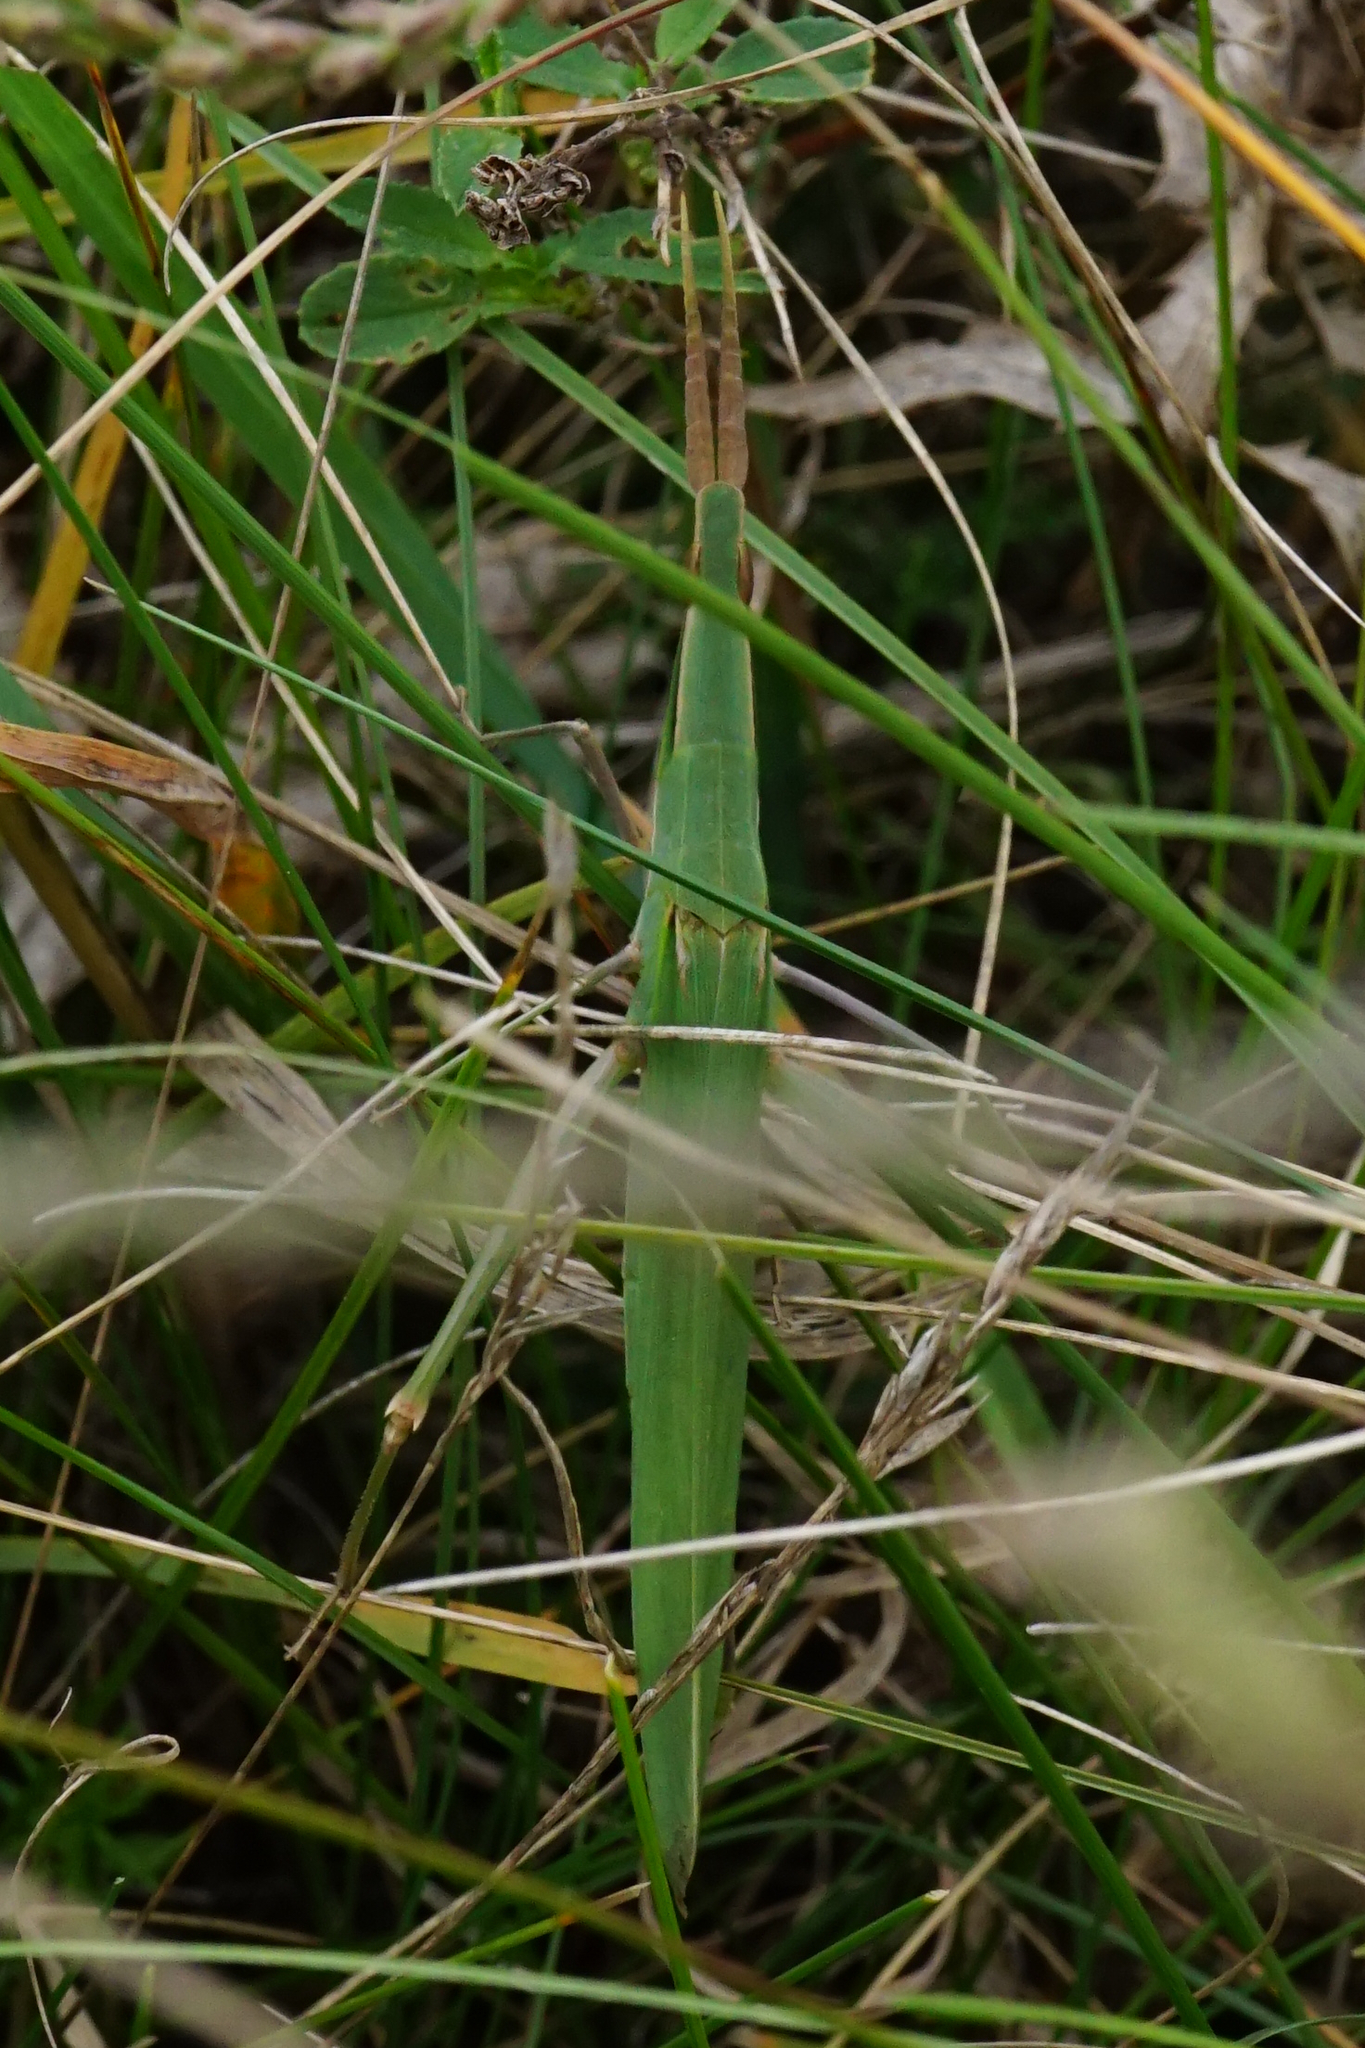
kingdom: Animalia
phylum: Arthropoda
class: Insecta
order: Orthoptera
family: Acrididae
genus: Acrida
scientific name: Acrida ungarica
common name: Common cone-headed grasshopper
